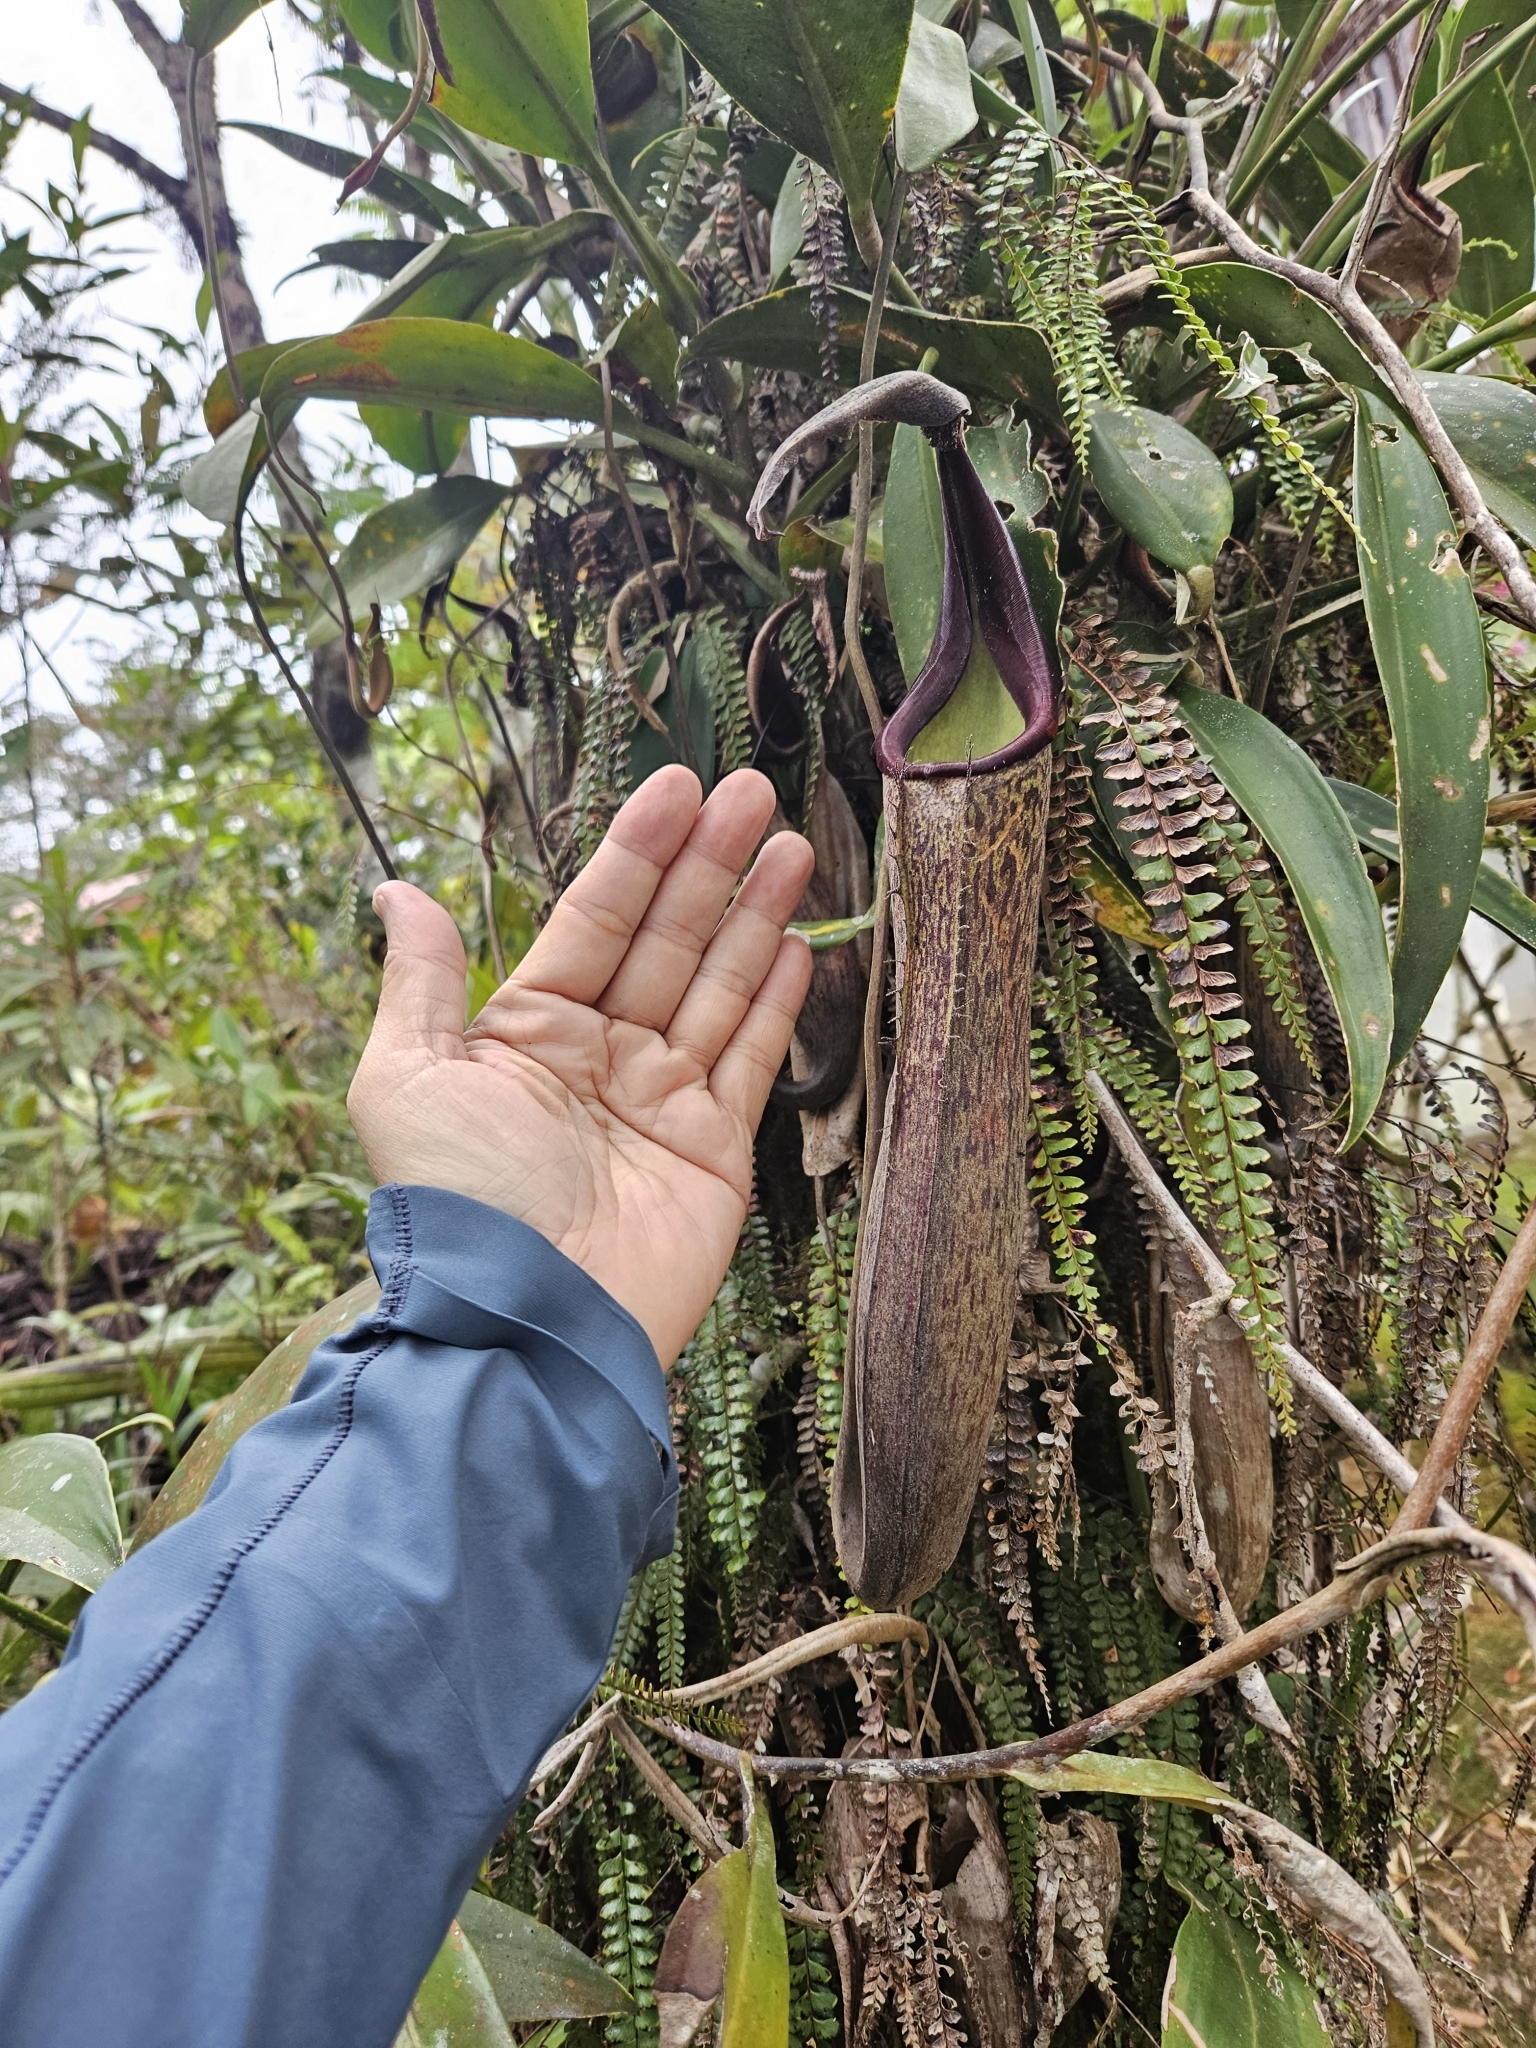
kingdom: Plantae
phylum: Tracheophyta
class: Magnoliopsida
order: Caryophyllales
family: Nepenthaceae
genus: Nepenthes
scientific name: Nepenthes fusca
